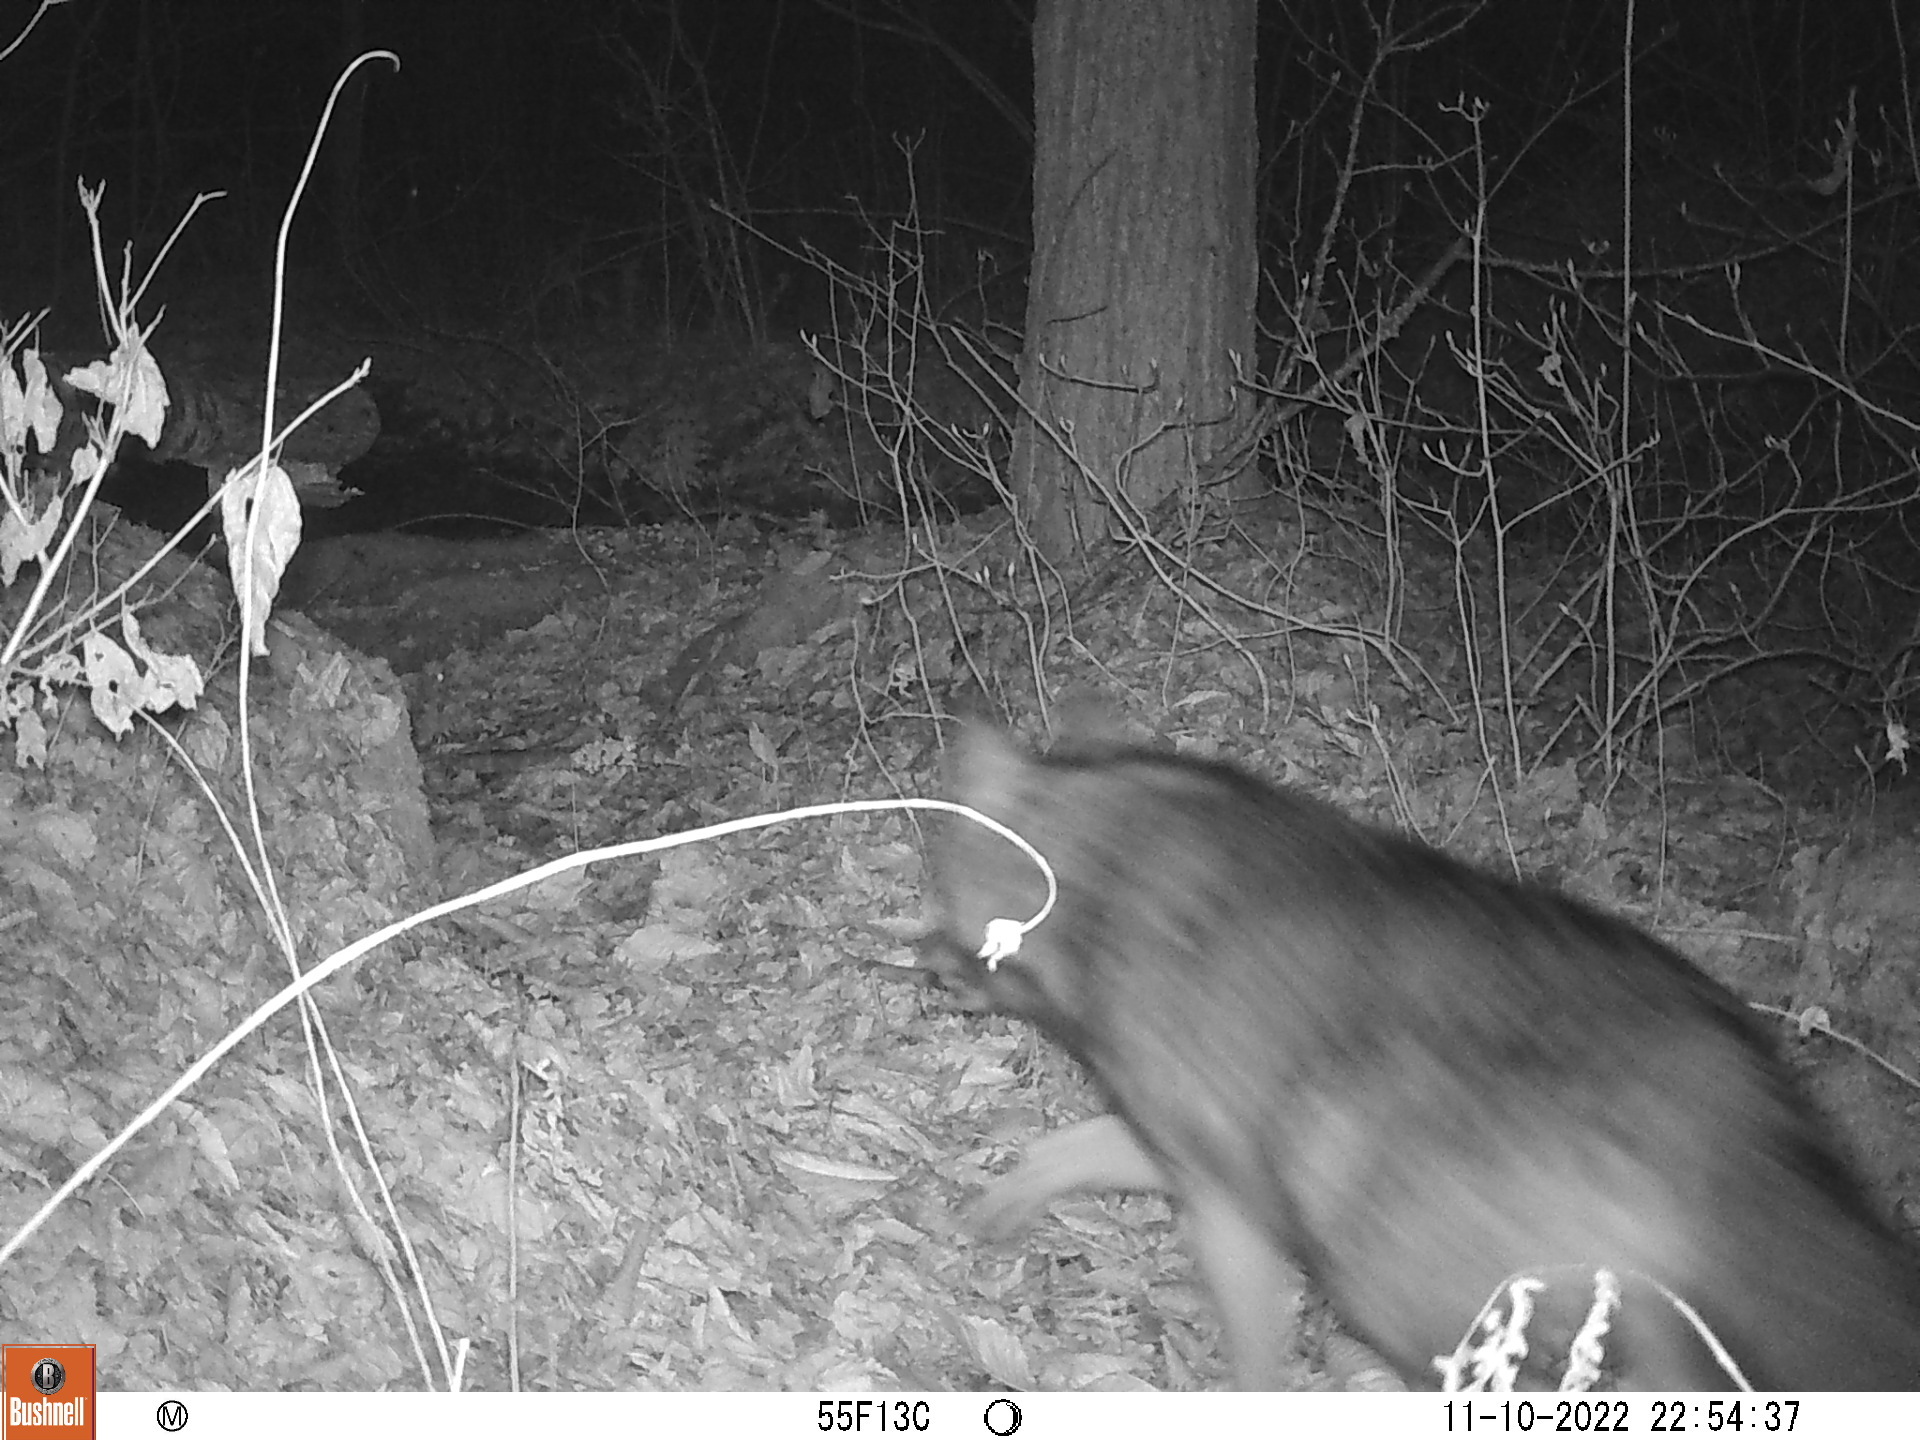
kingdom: Animalia
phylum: Chordata
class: Mammalia
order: Carnivora
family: Canidae
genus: Canis
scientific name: Canis latrans
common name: Coyote
